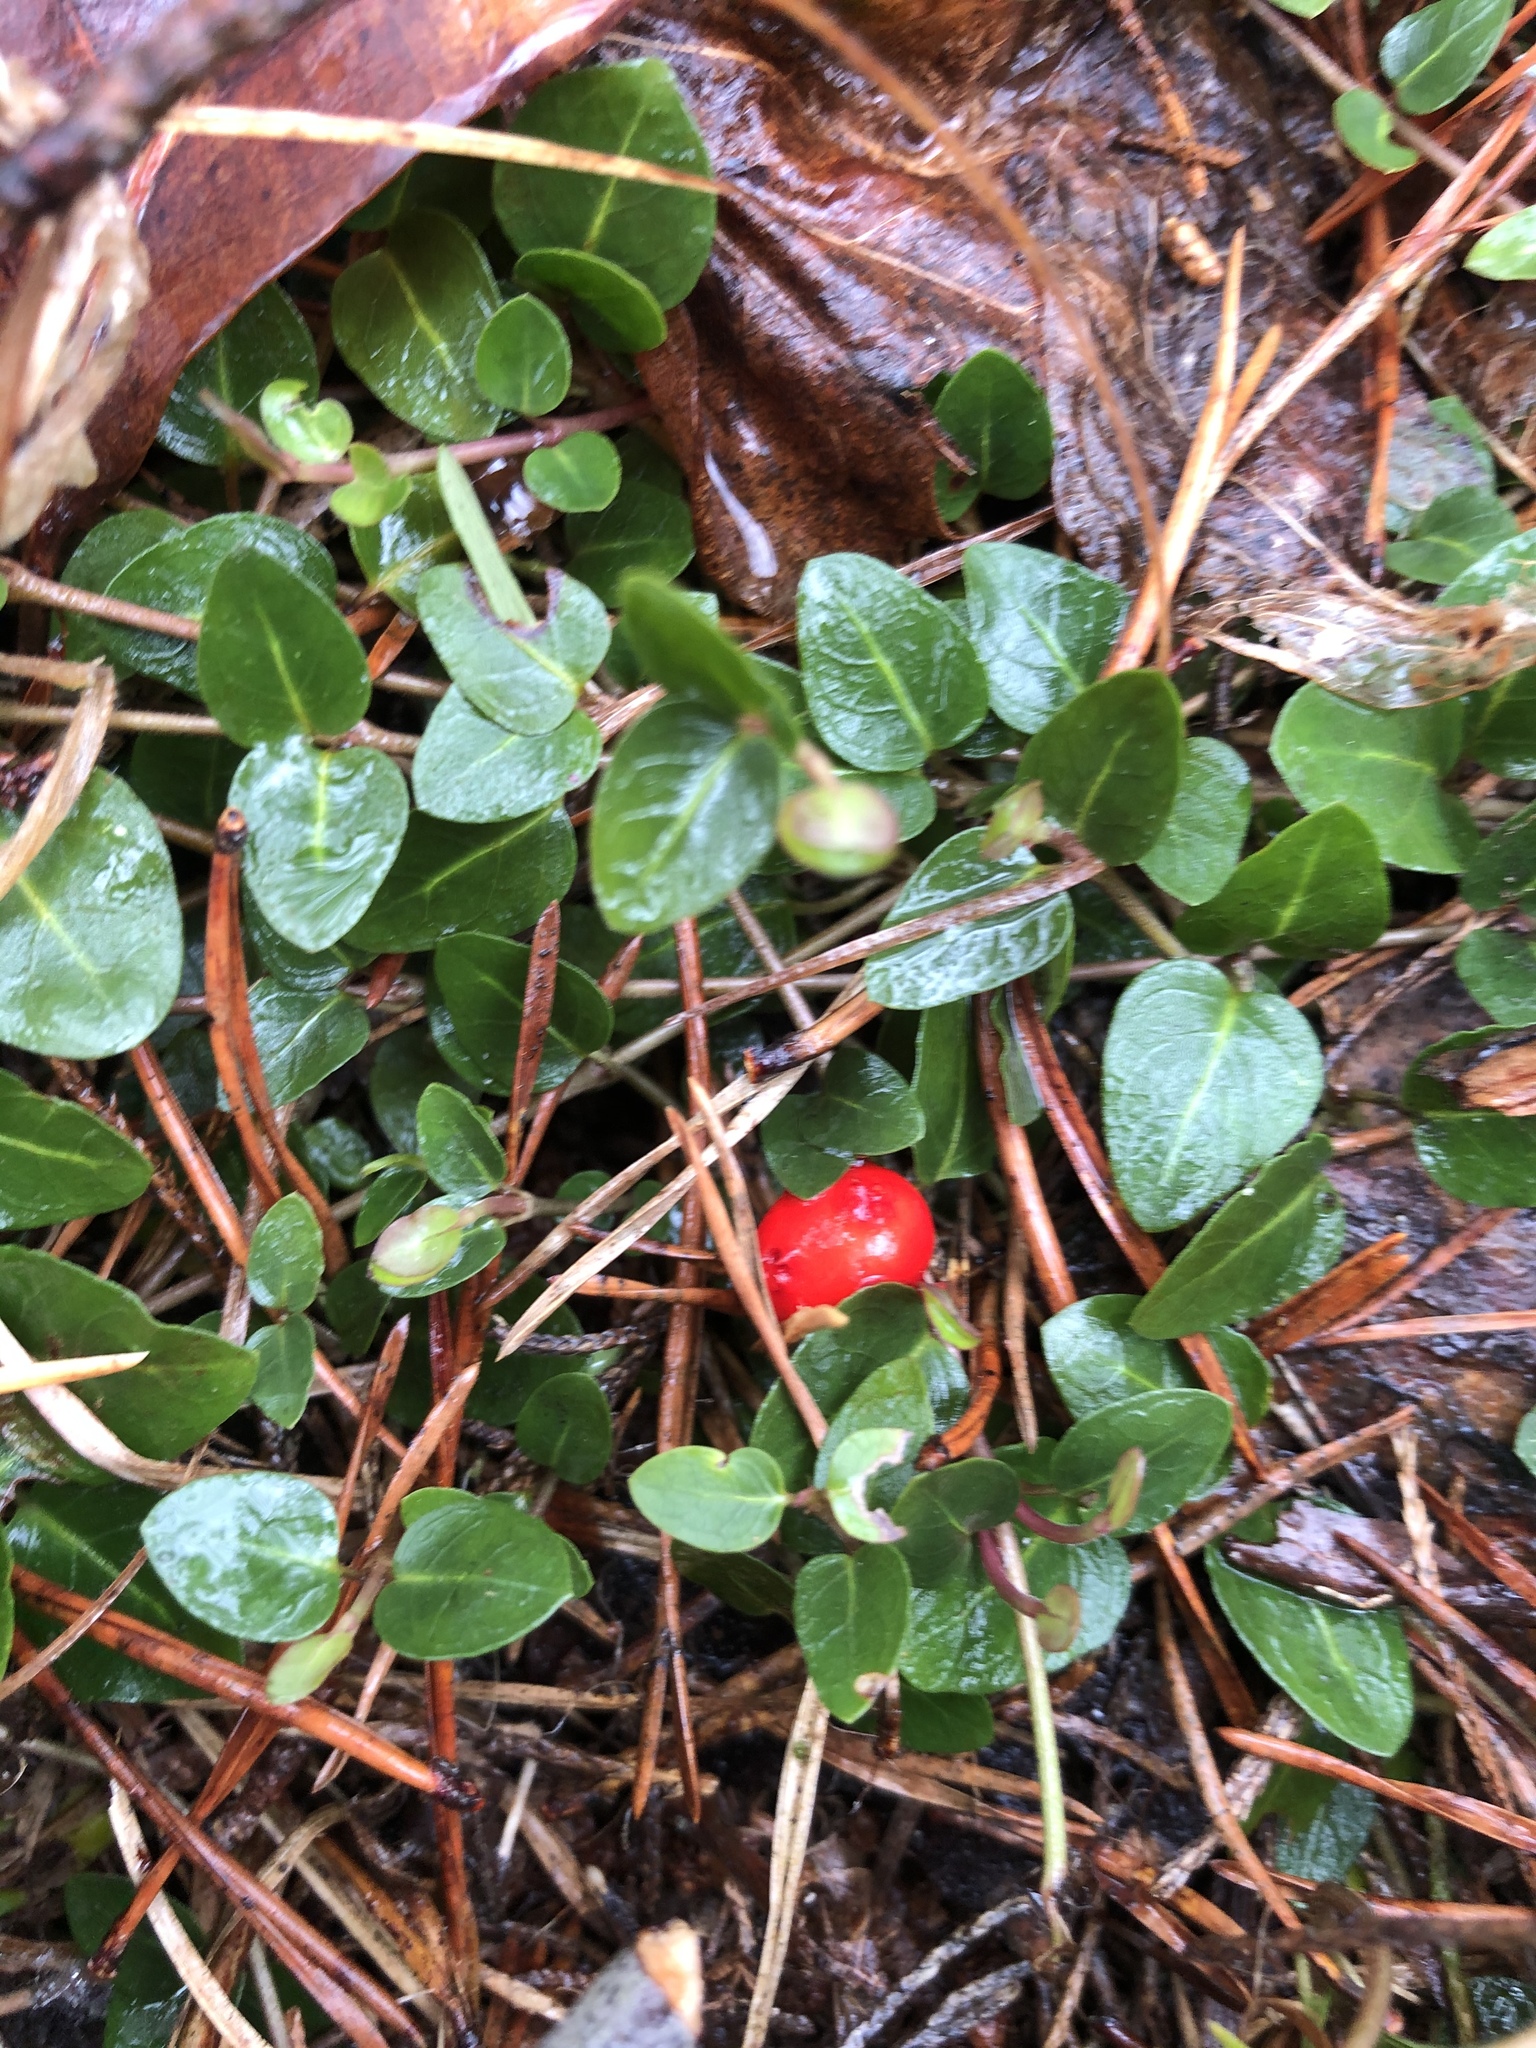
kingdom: Plantae
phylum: Tracheophyta
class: Magnoliopsida
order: Gentianales
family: Rubiaceae
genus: Mitchella
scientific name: Mitchella repens
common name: Partridge-berry
